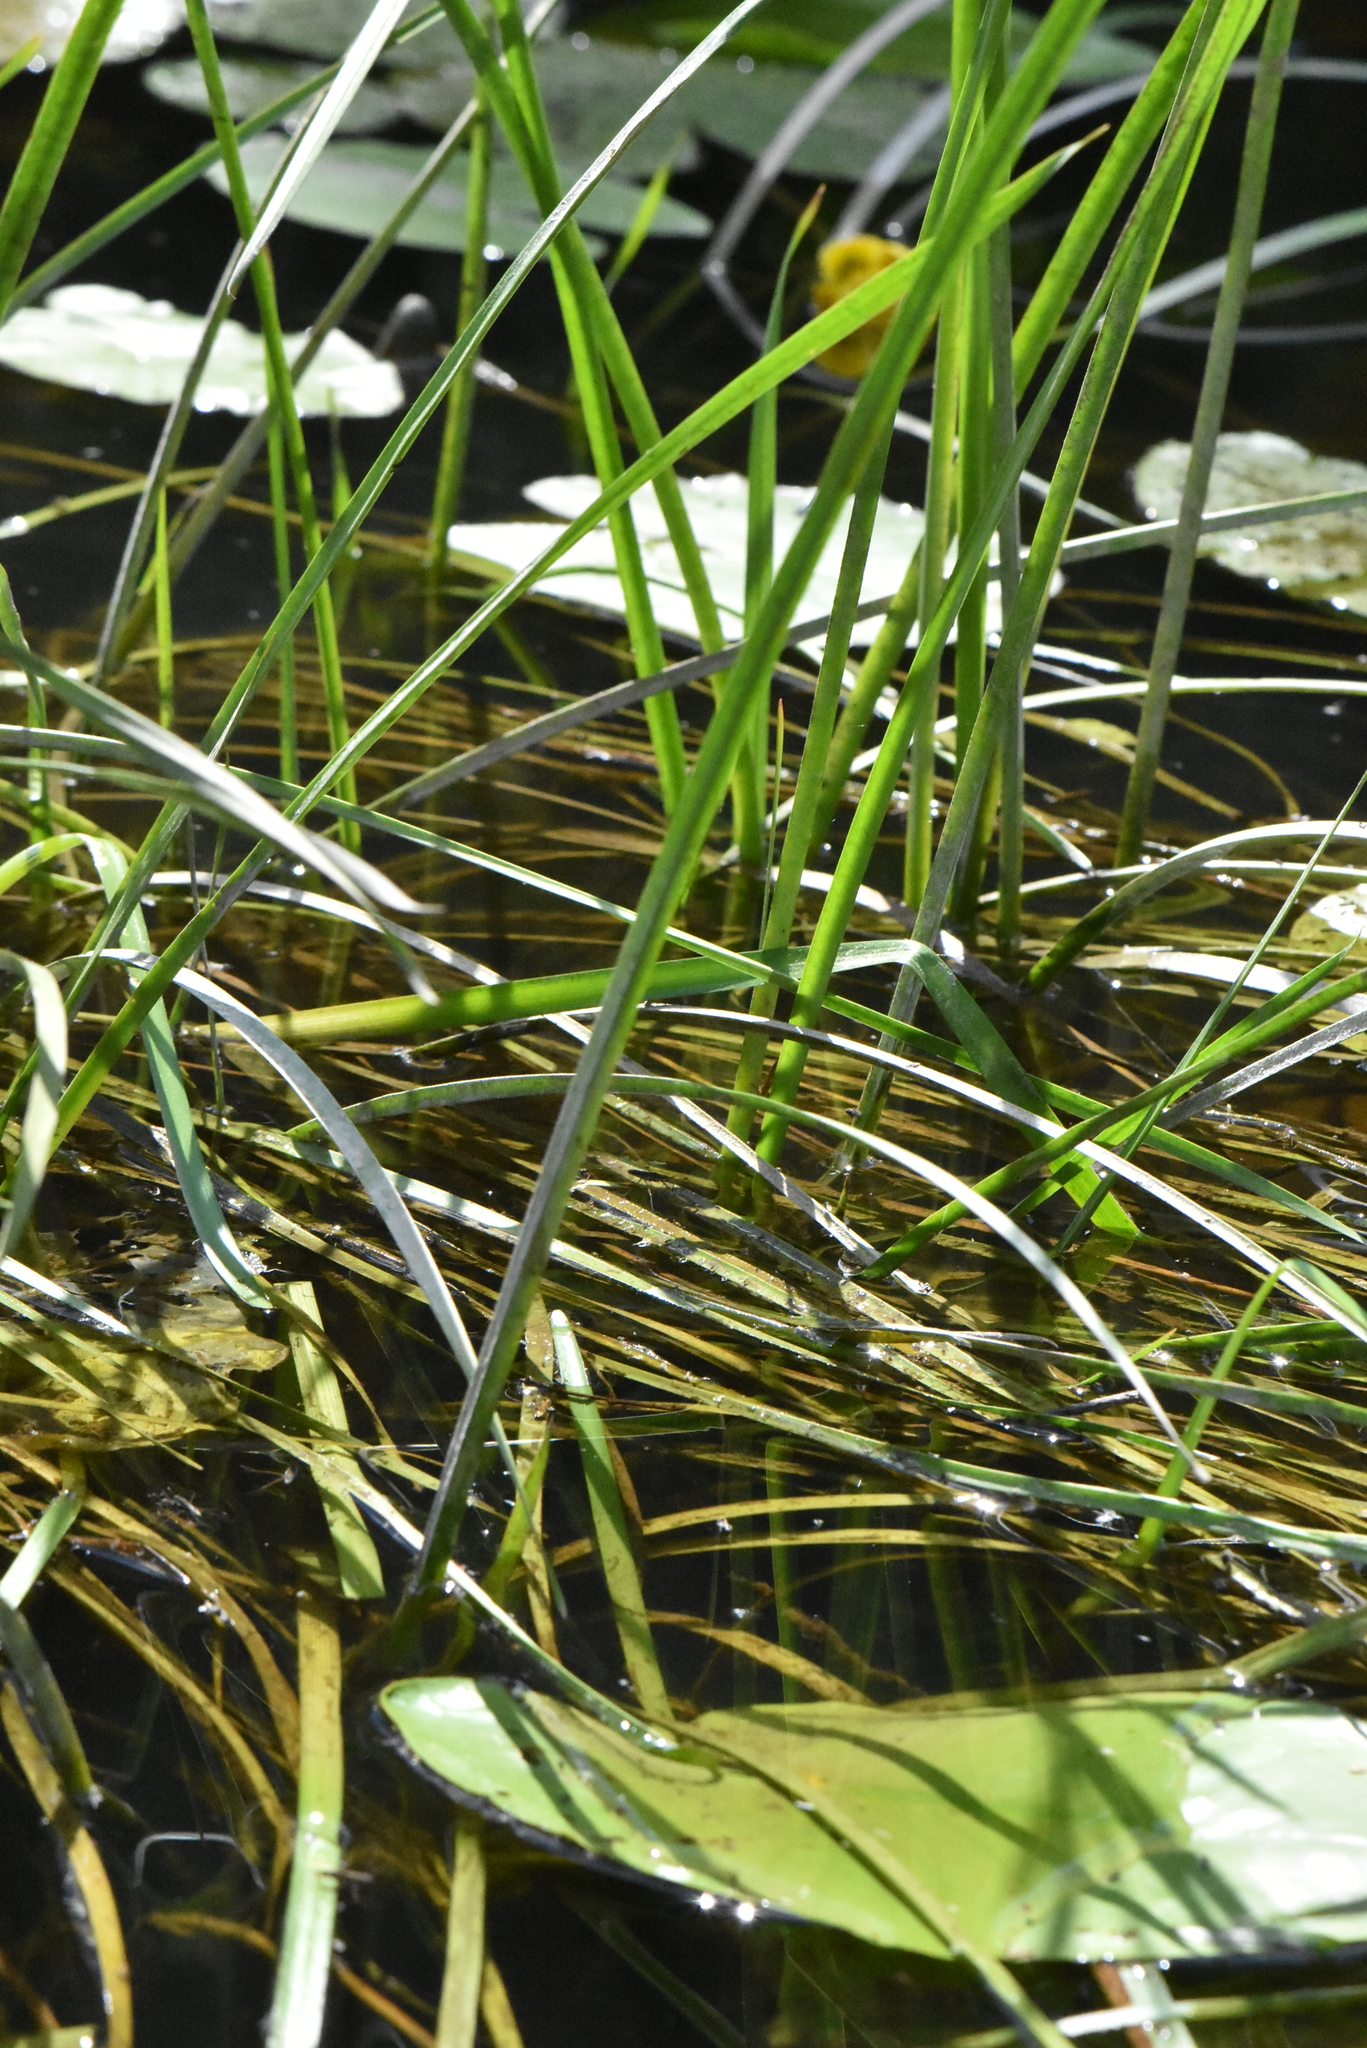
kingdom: Plantae
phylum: Tracheophyta
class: Liliopsida
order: Poales
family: Typhaceae
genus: Sparganium
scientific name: Sparganium emersum
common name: Unbranched bur-reed
